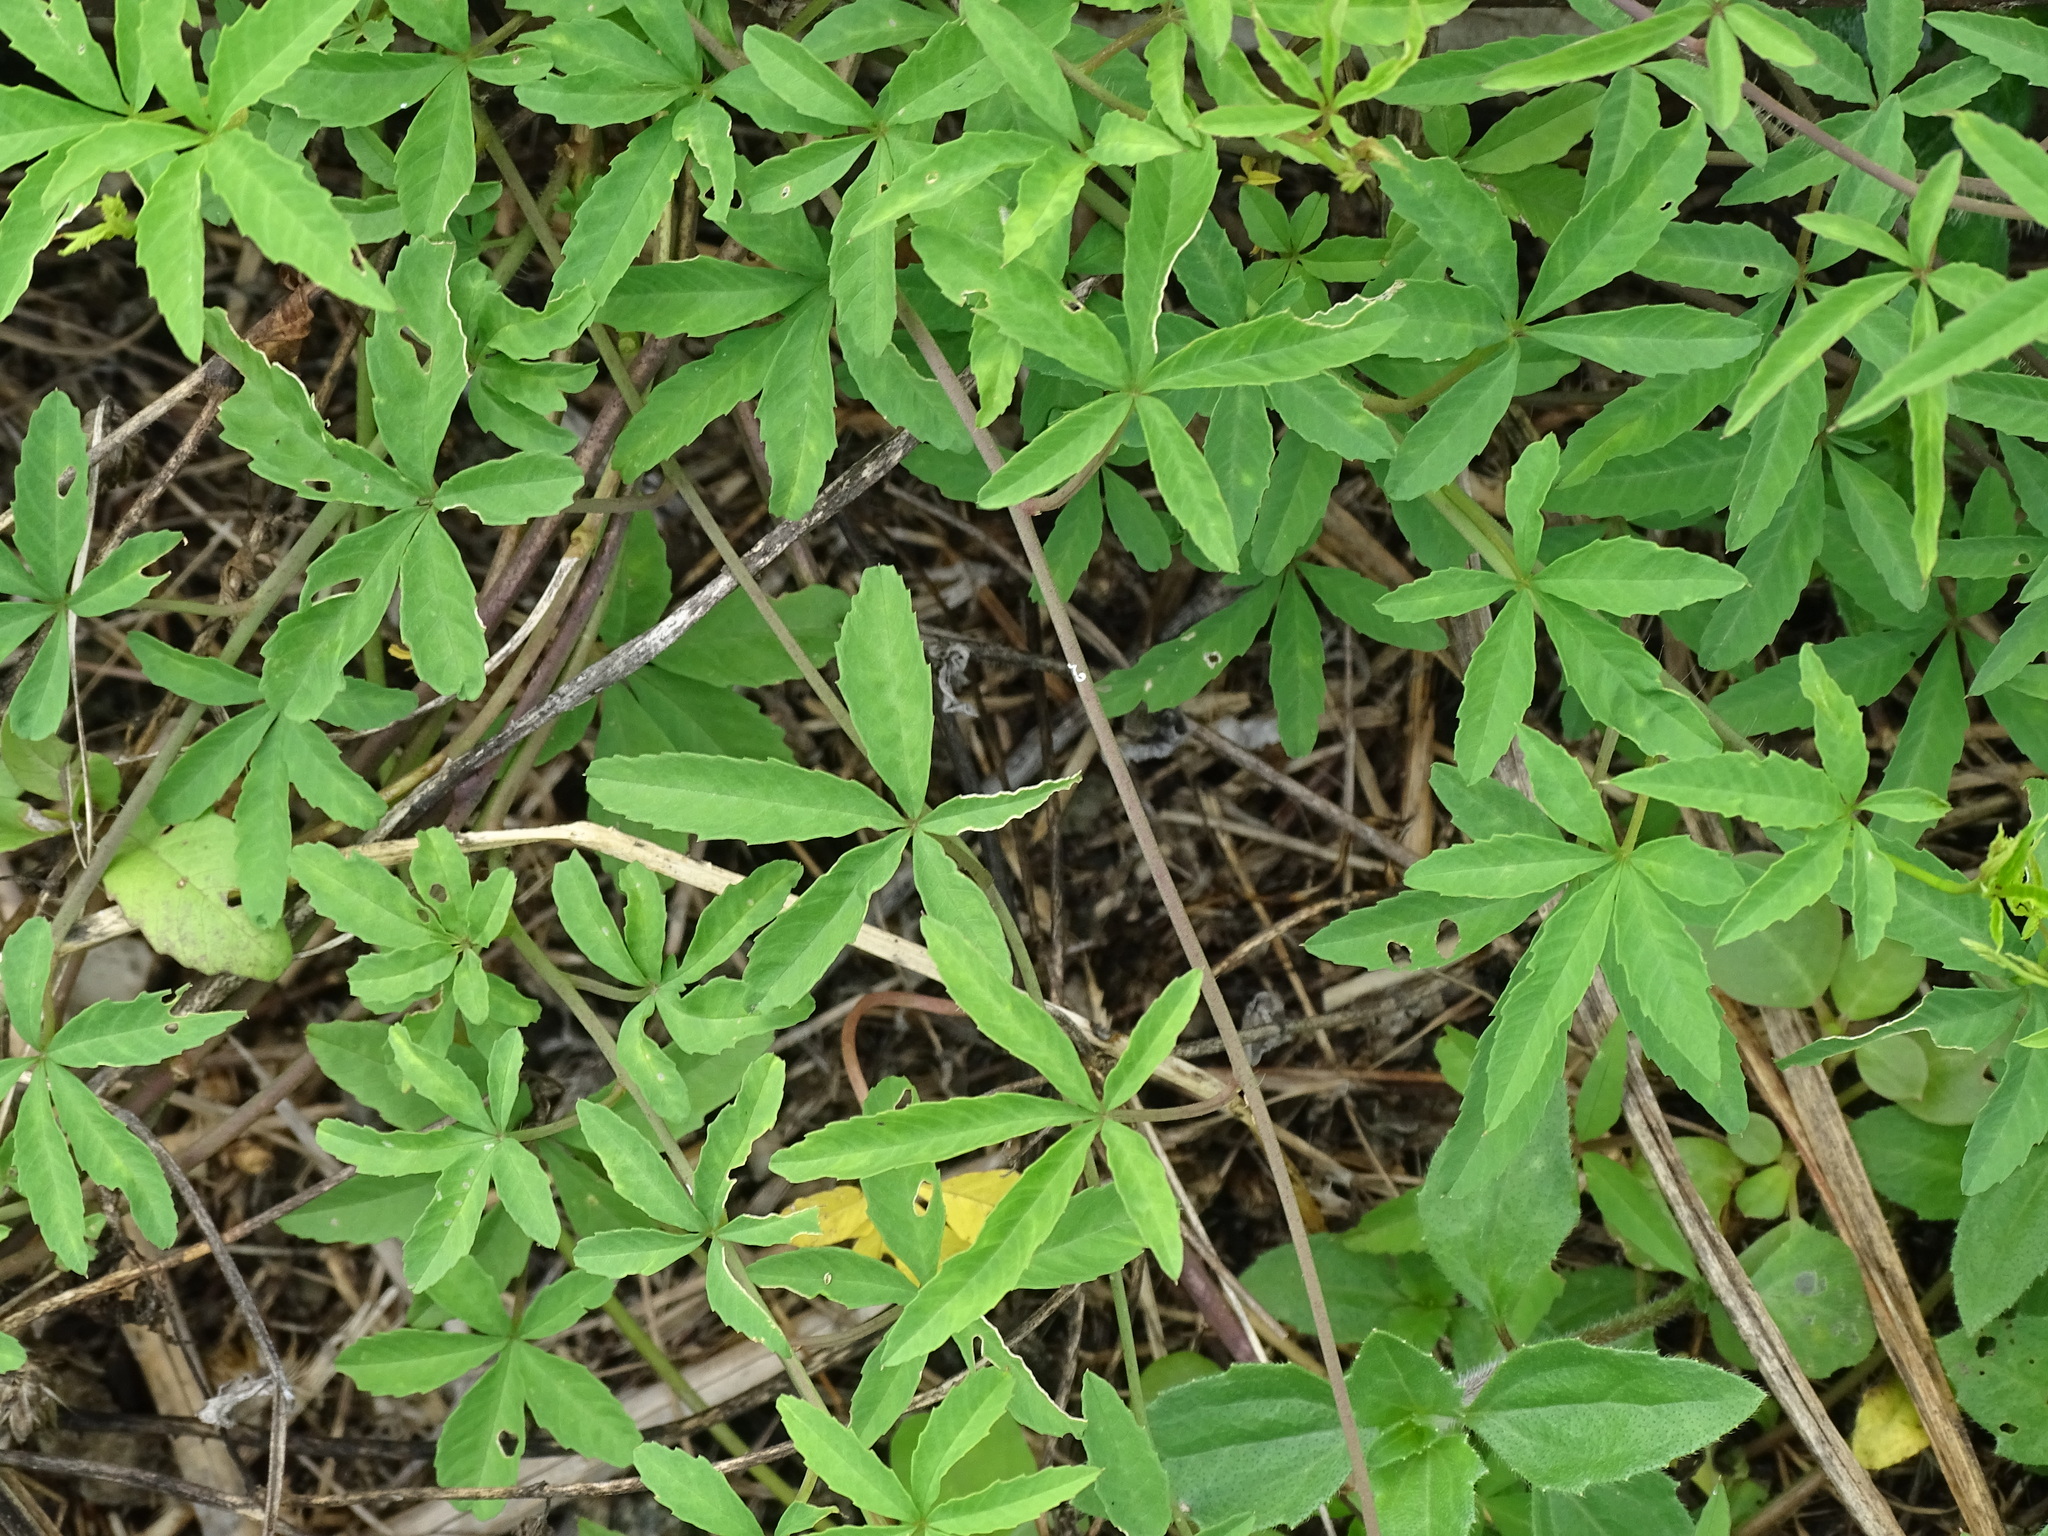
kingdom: Plantae
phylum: Tracheophyta
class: Magnoliopsida
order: Solanales
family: Convolvulaceae
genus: Distimake
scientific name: Distimake quinquefolius
